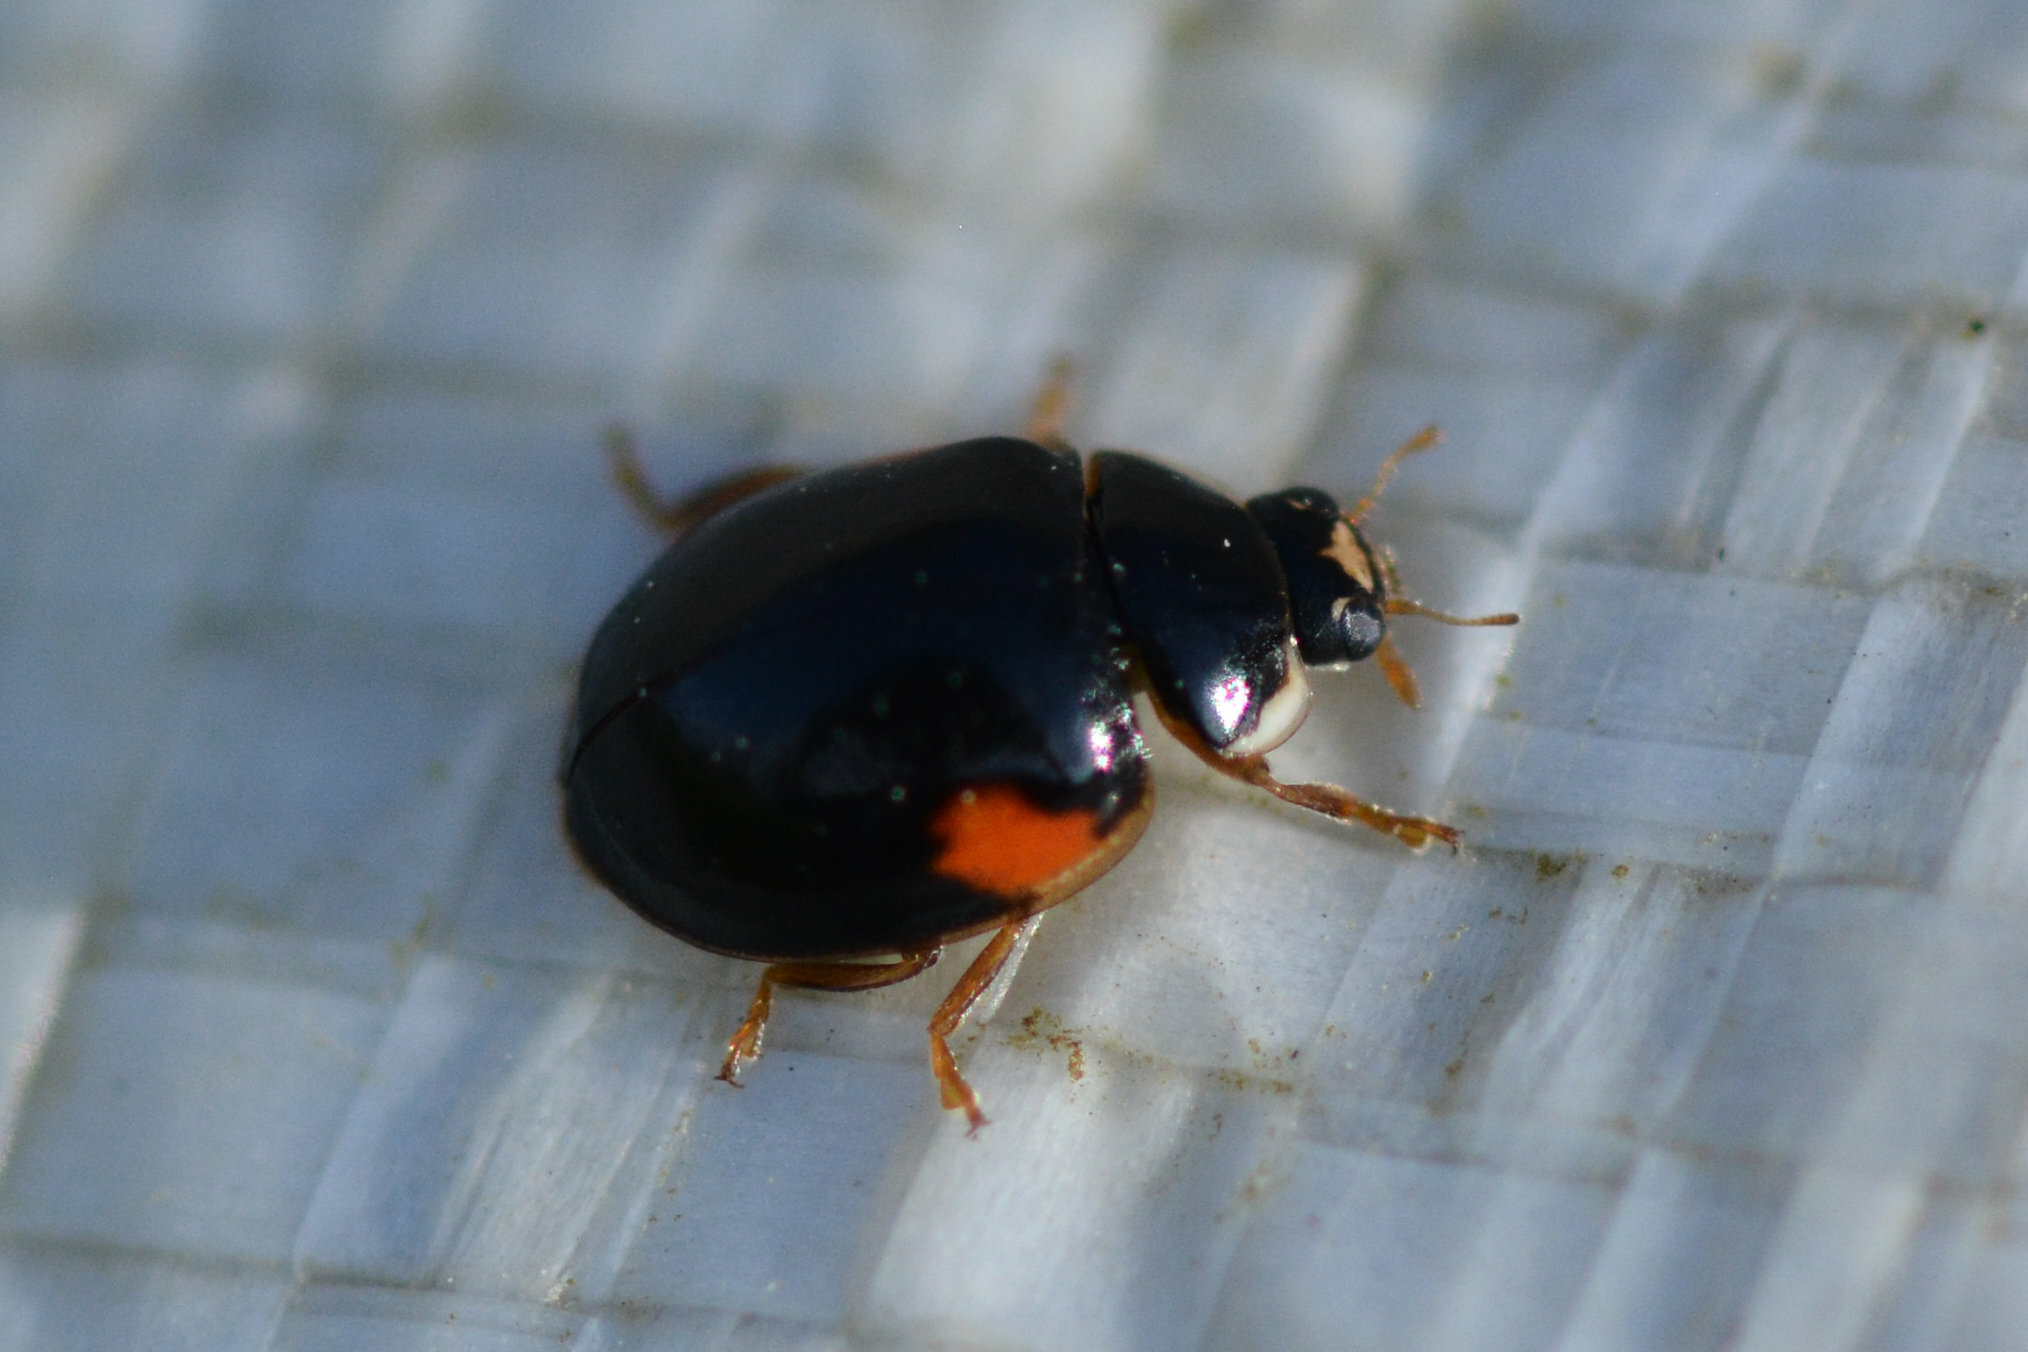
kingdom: Animalia
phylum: Arthropoda
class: Insecta
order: Coleoptera
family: Coccinellidae
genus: Adalia
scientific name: Adalia decempunctata
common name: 10-spot ladybird
